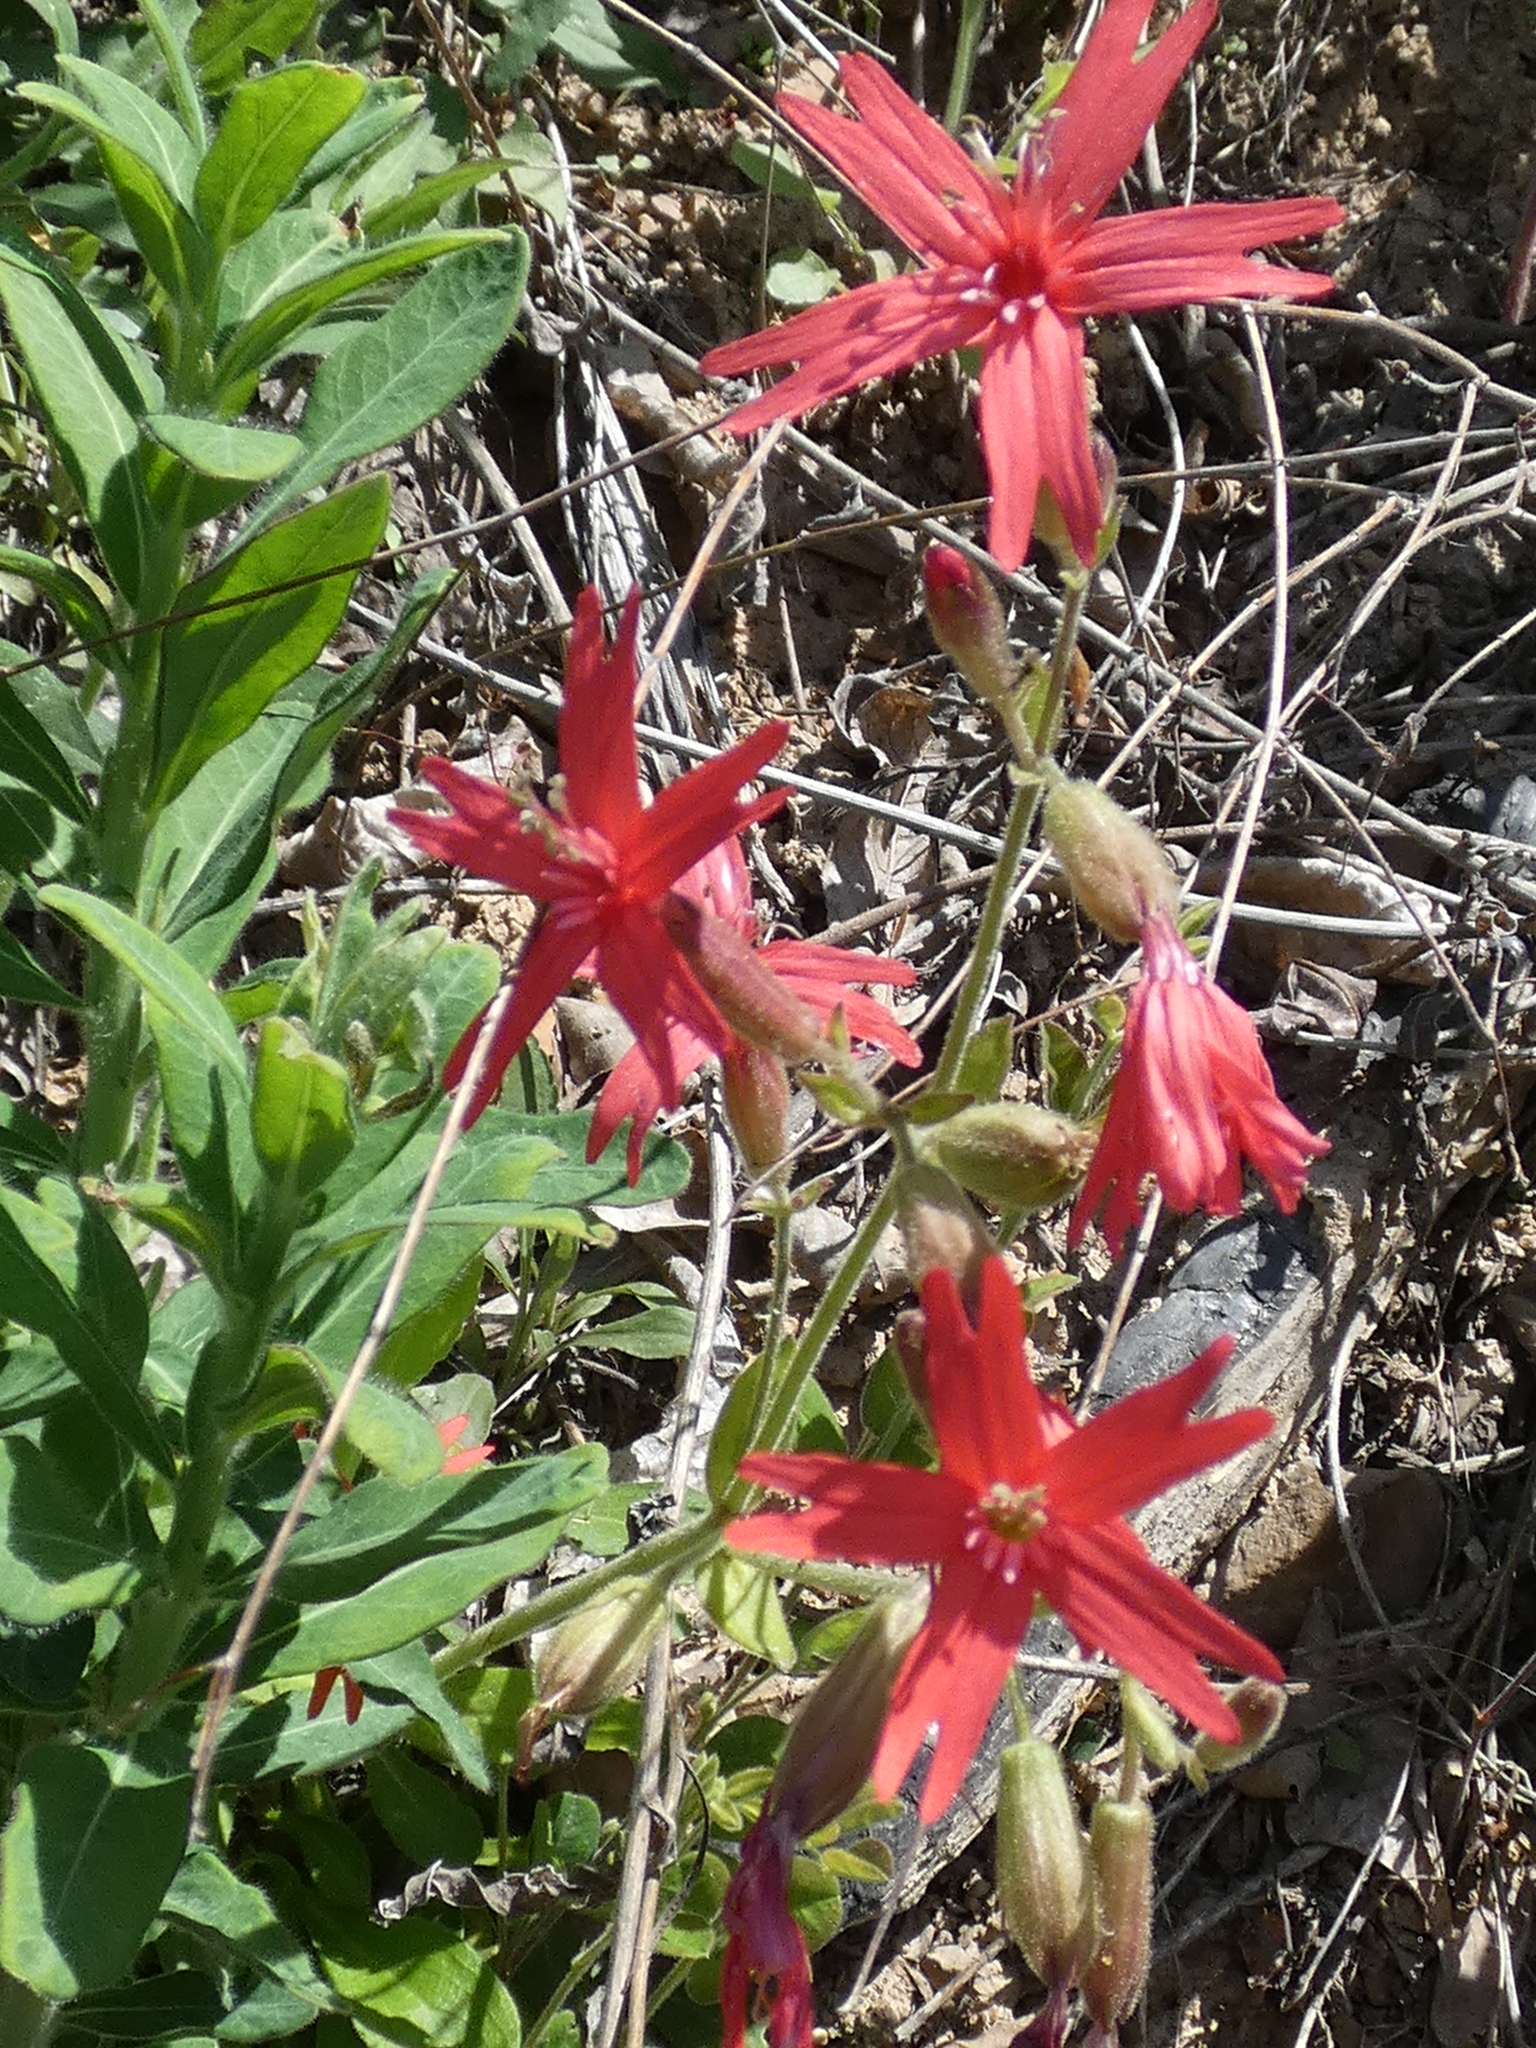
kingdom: Plantae
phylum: Tracheophyta
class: Magnoliopsida
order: Caryophyllales
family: Caryophyllaceae
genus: Silene
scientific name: Silene virginica
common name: Fire-pink
